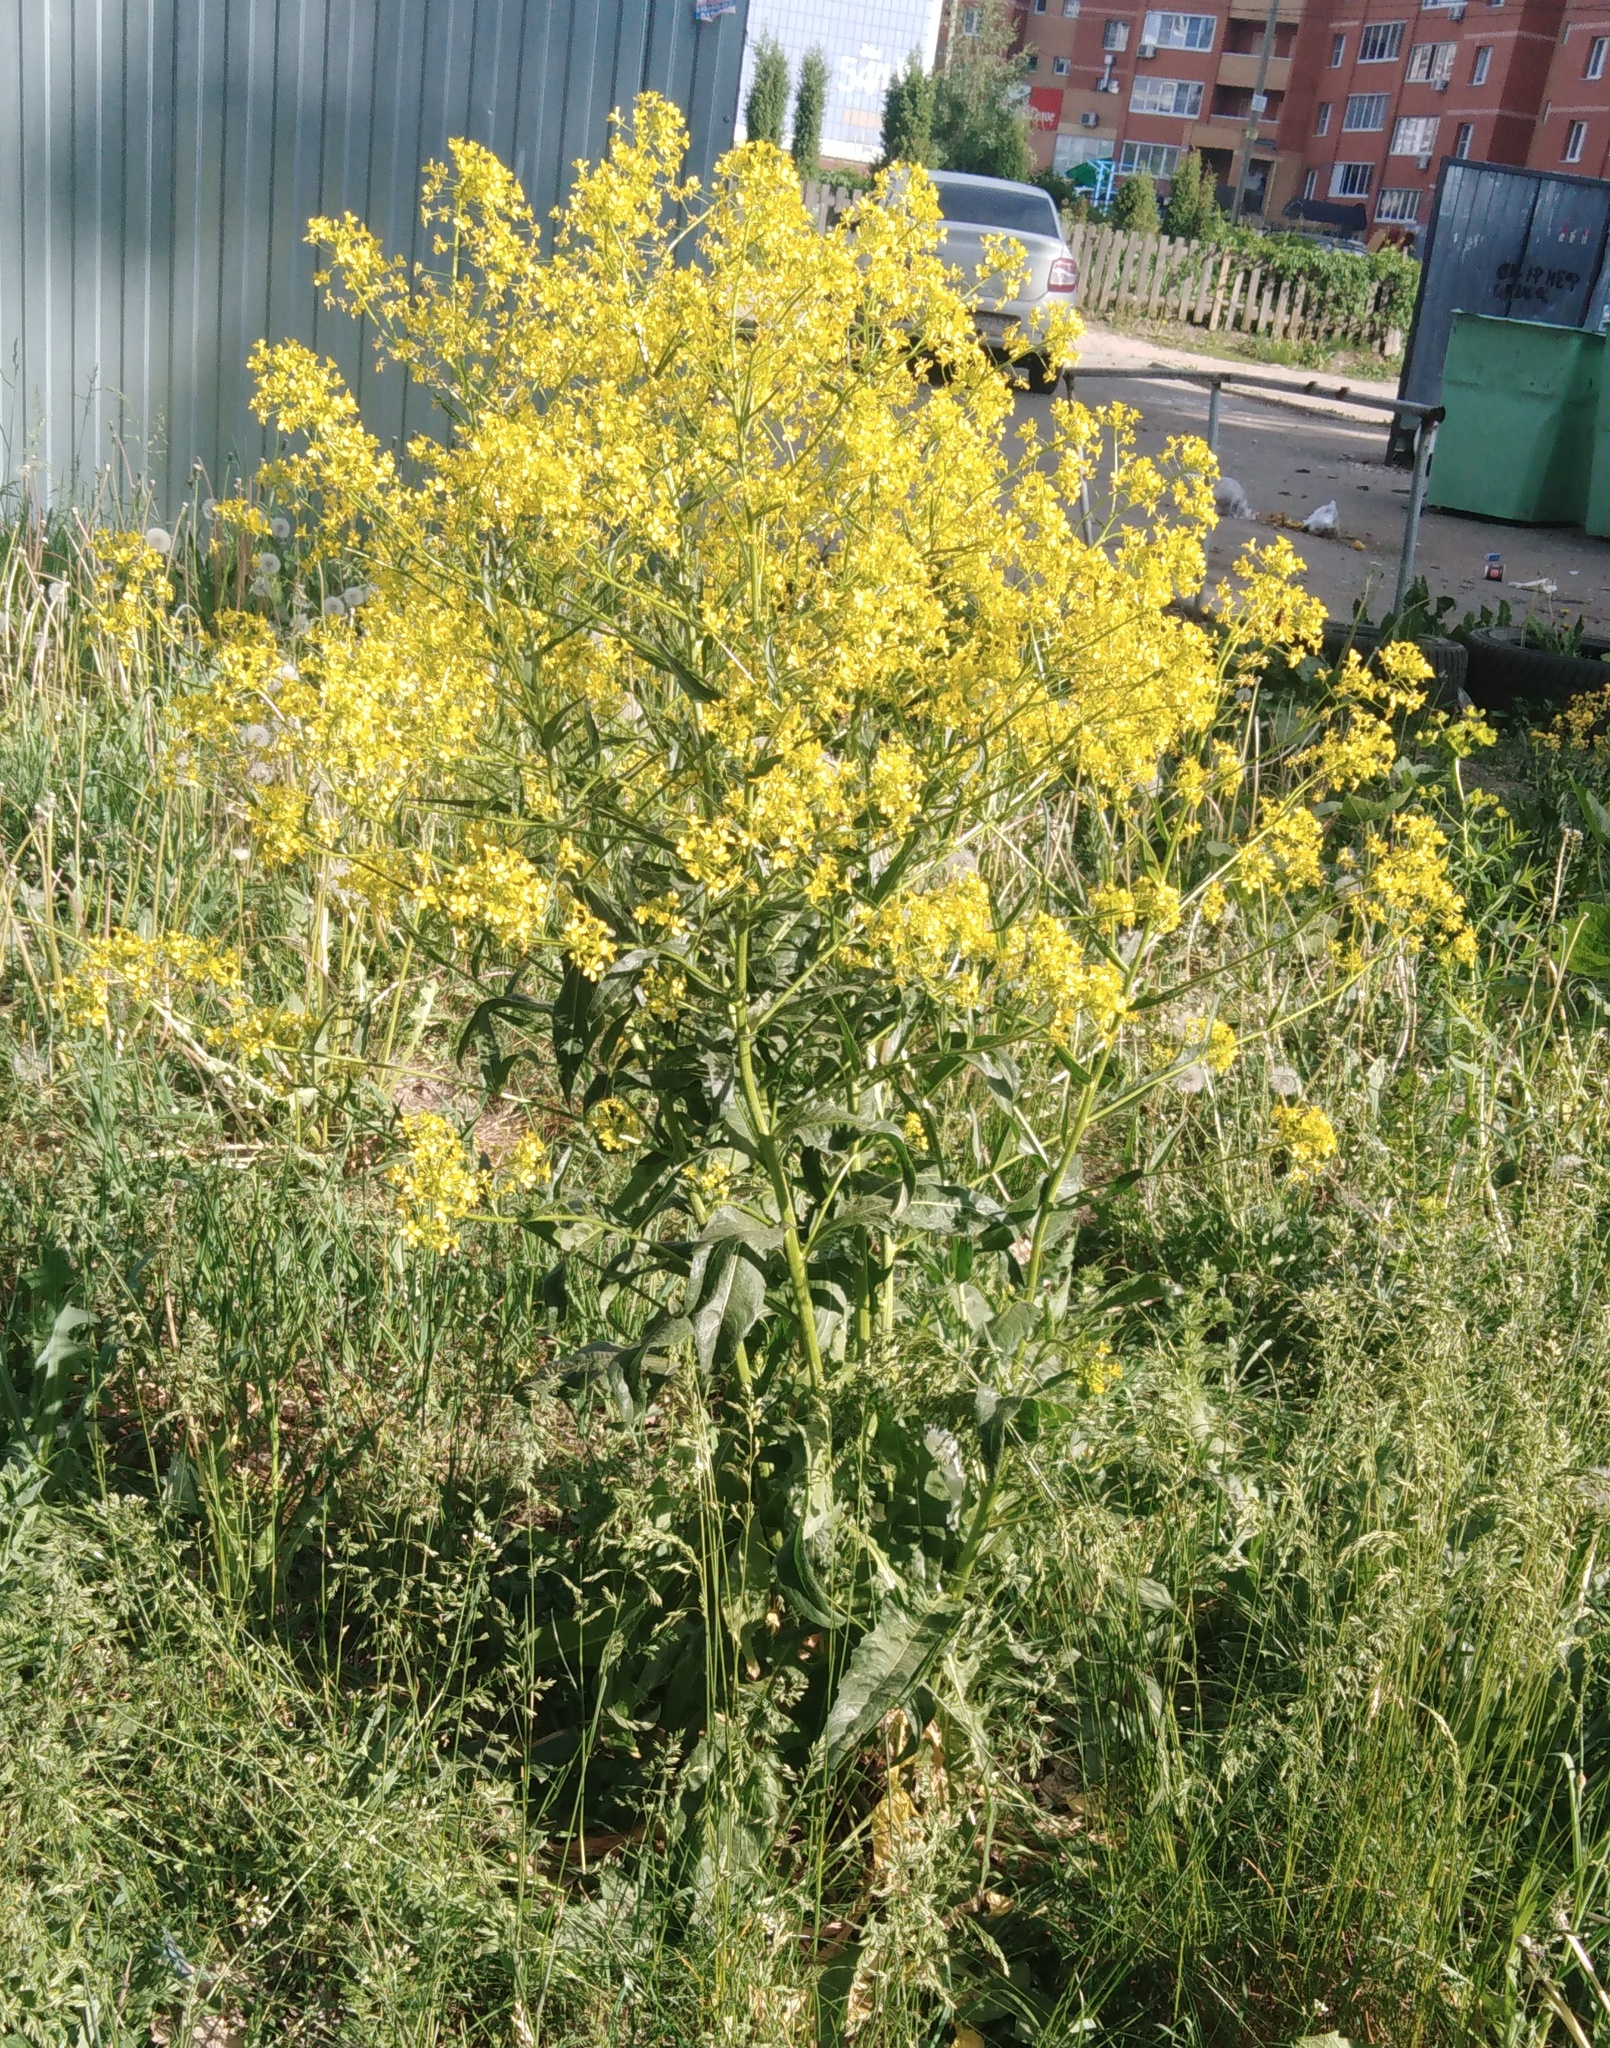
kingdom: Plantae
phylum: Tracheophyta
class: Magnoliopsida
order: Brassicales
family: Brassicaceae
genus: Bunias
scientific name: Bunias orientalis
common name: Warty-cabbage
